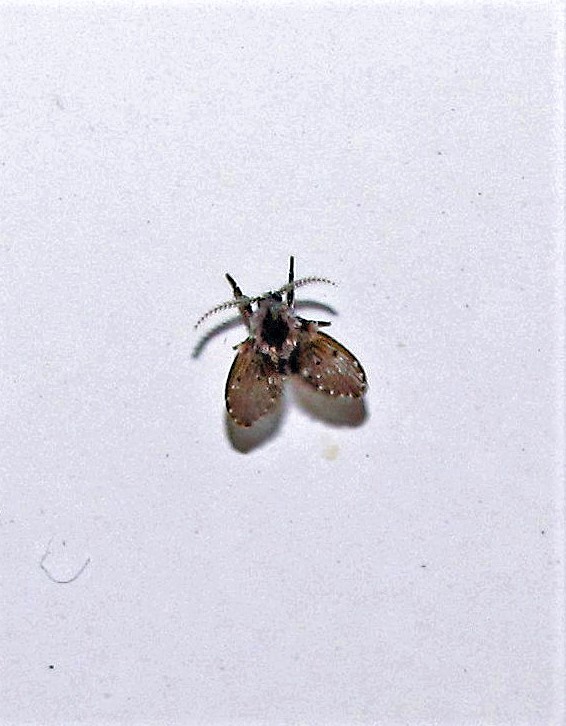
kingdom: Animalia
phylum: Arthropoda
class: Insecta
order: Diptera
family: Psychodidae
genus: Clogmia
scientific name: Clogmia albipunctatus
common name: White-spotted moth fly
